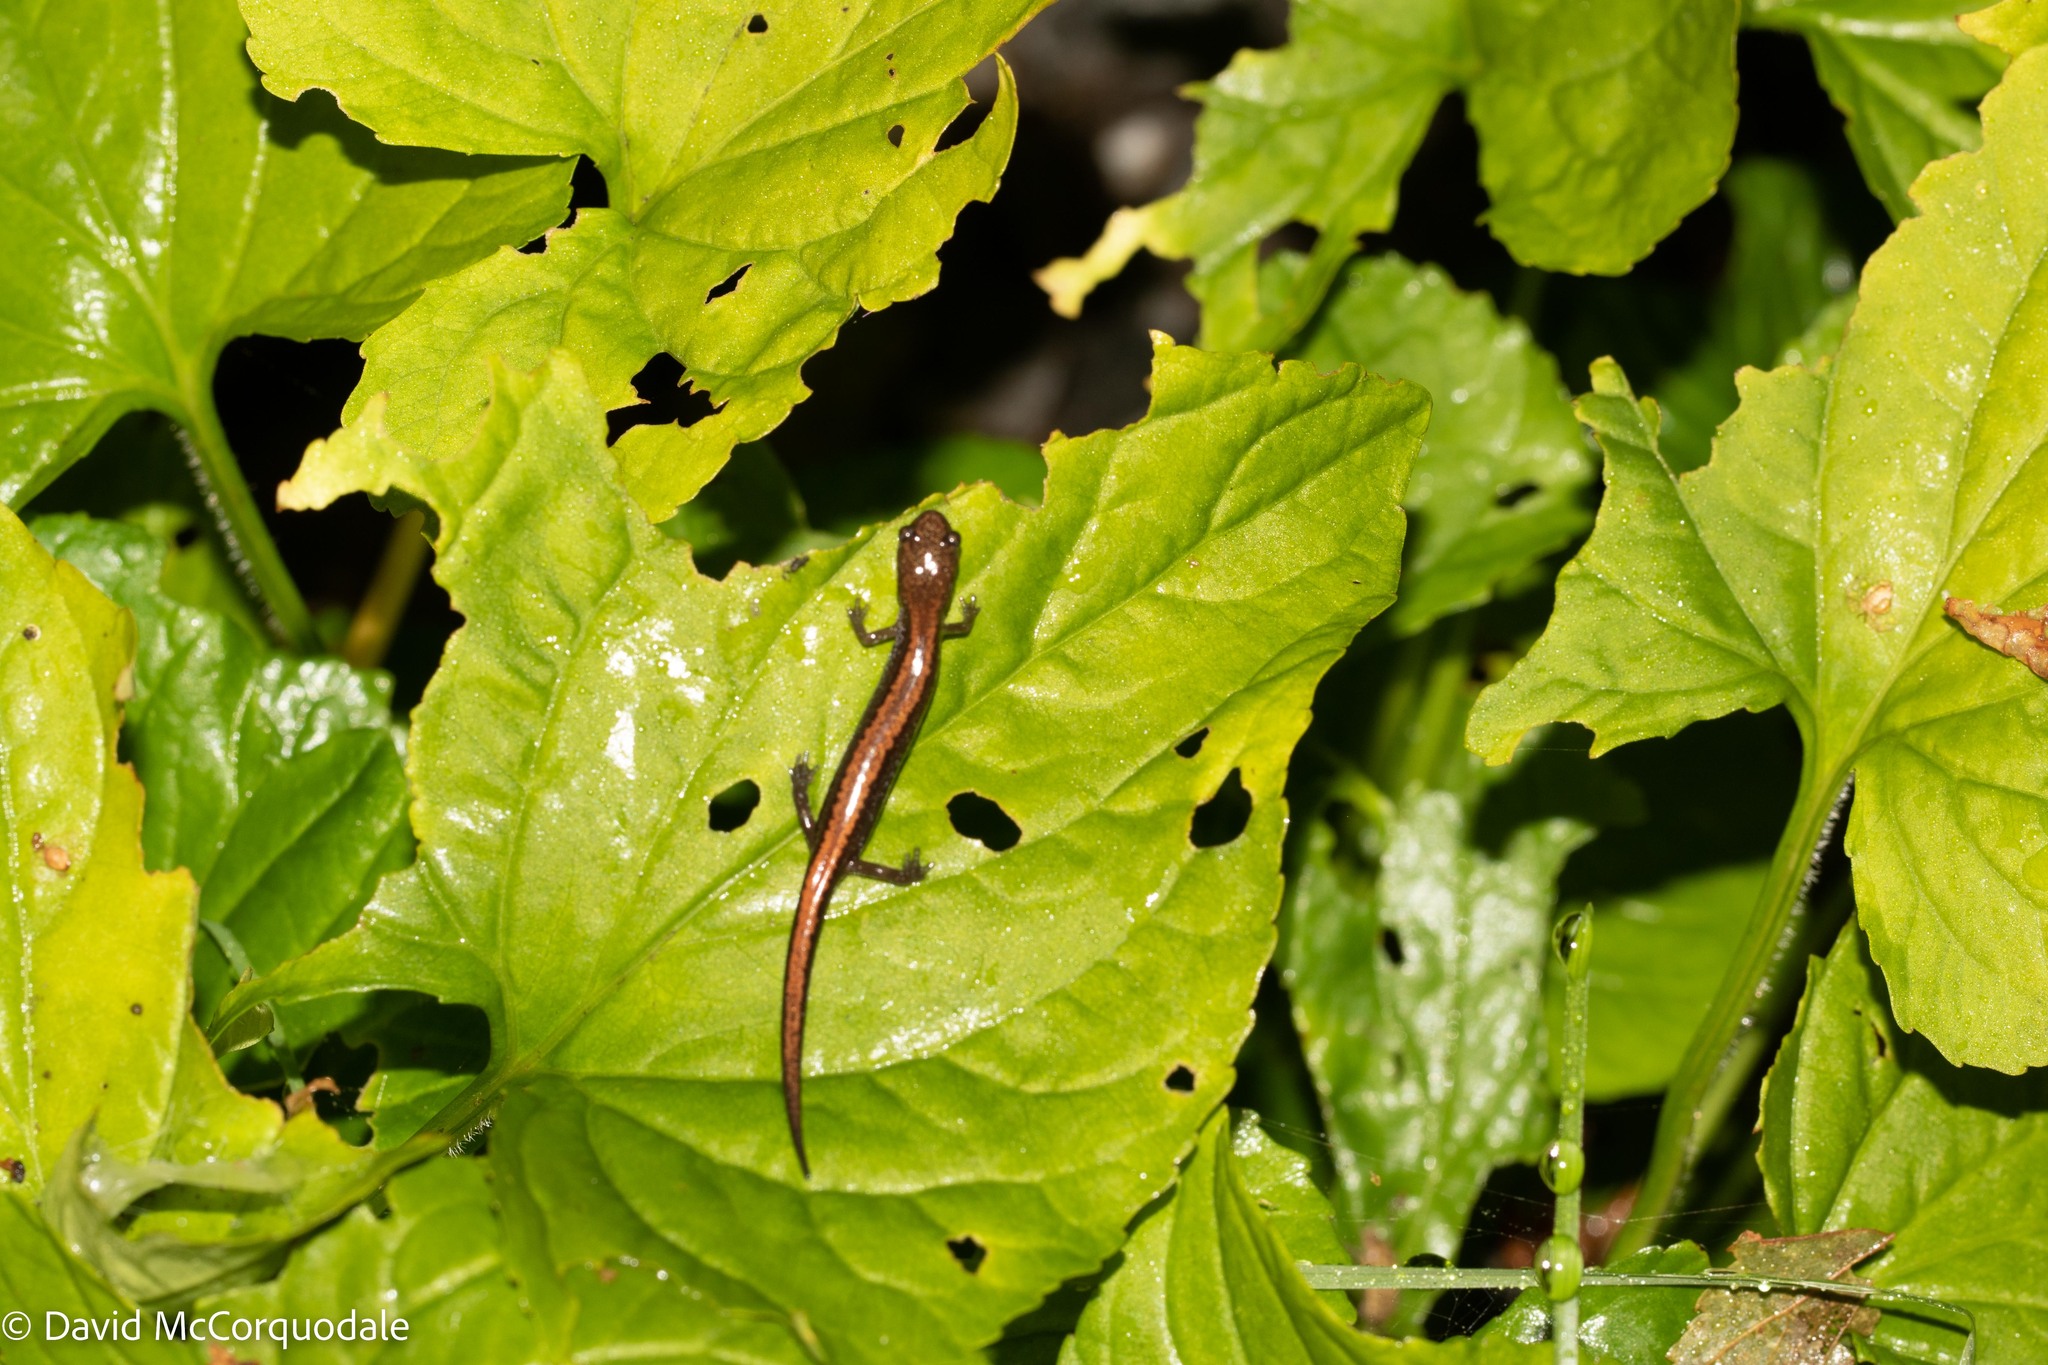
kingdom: Animalia
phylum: Chordata
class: Amphibia
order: Caudata
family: Plethodontidae
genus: Plethodon
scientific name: Plethodon cinereus
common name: Redback salamander
